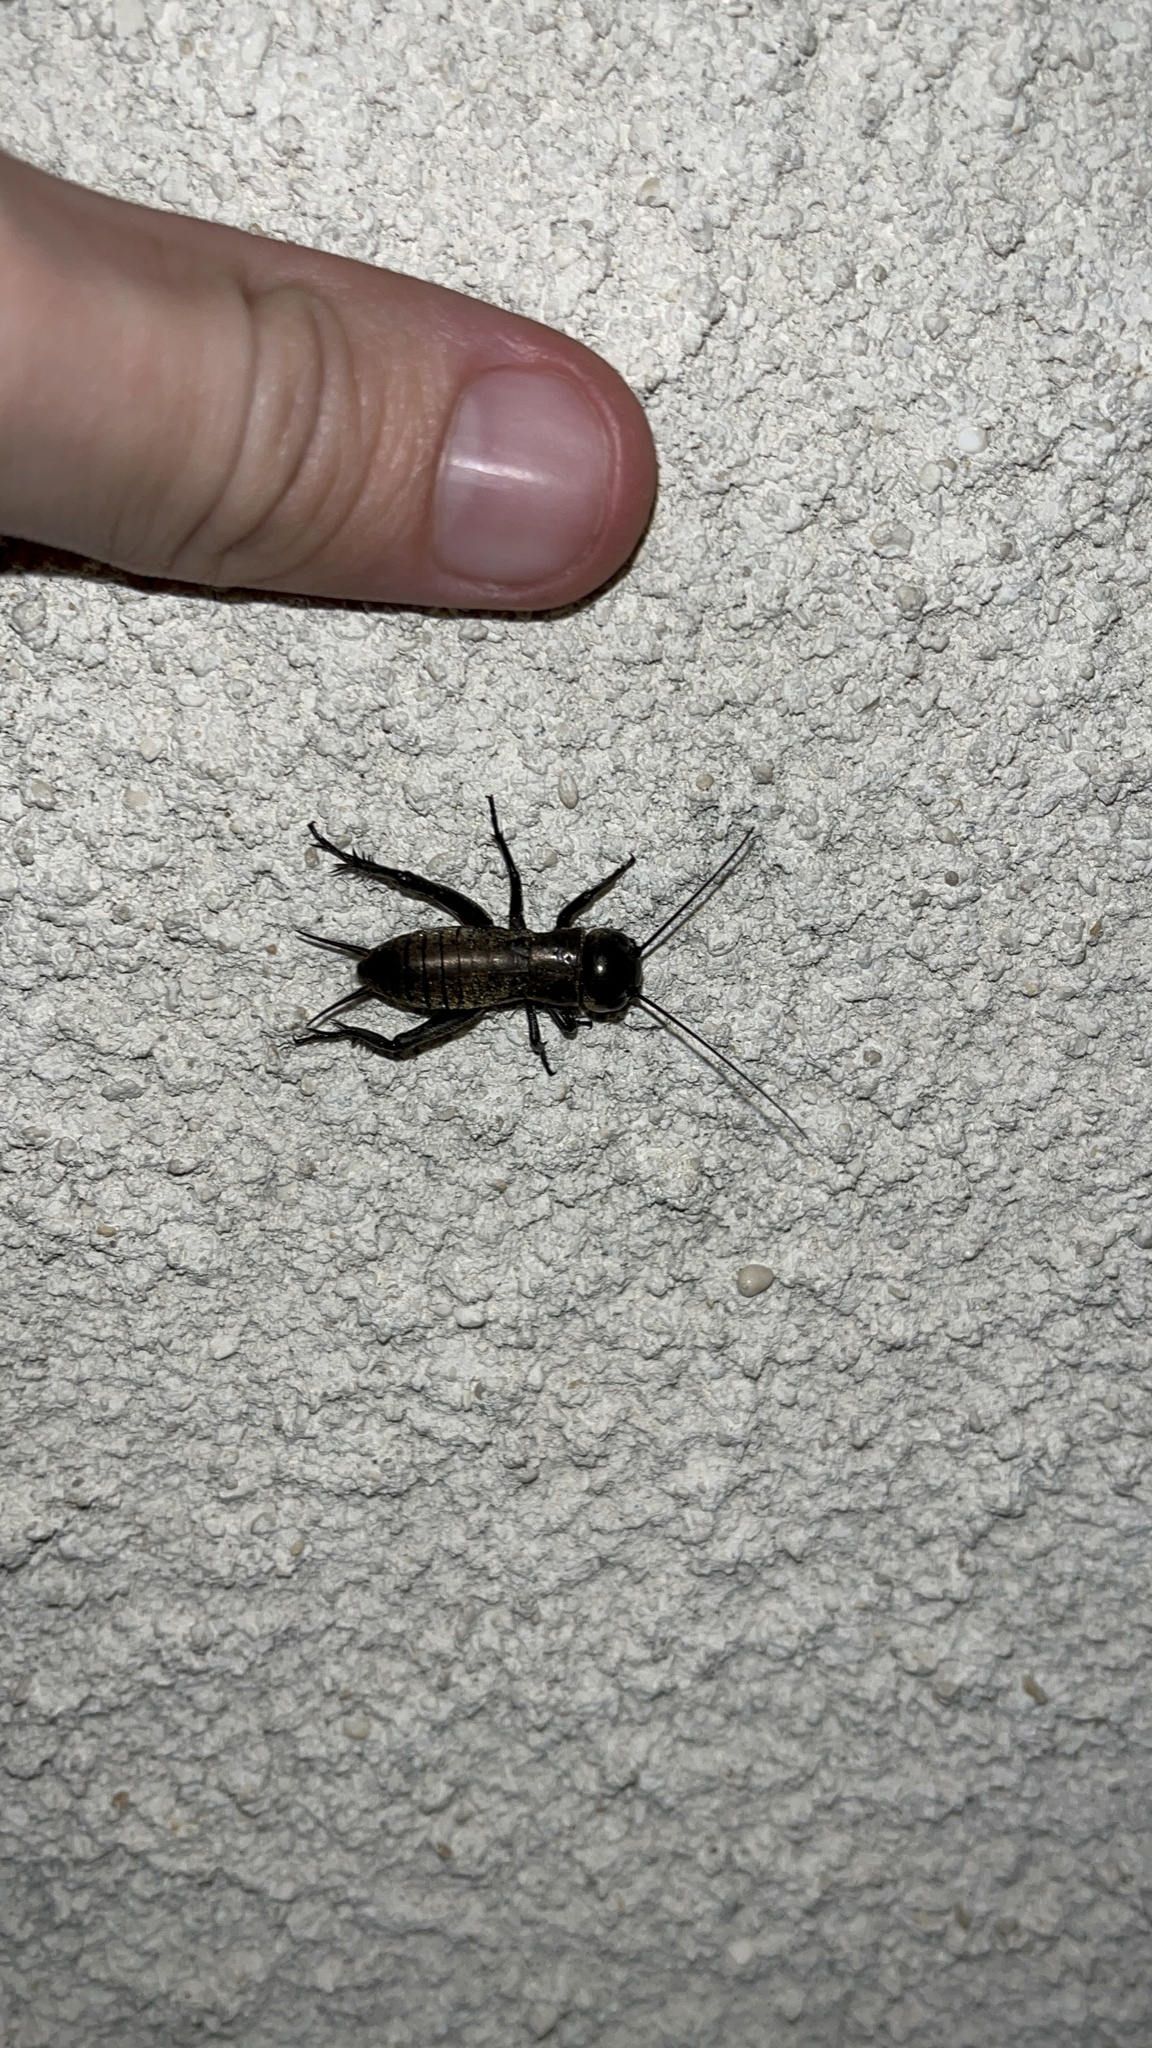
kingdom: Animalia
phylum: Arthropoda
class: Insecta
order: Orthoptera
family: Gryllidae
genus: Gryllus
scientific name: Gryllus campestris
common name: Field cricket
